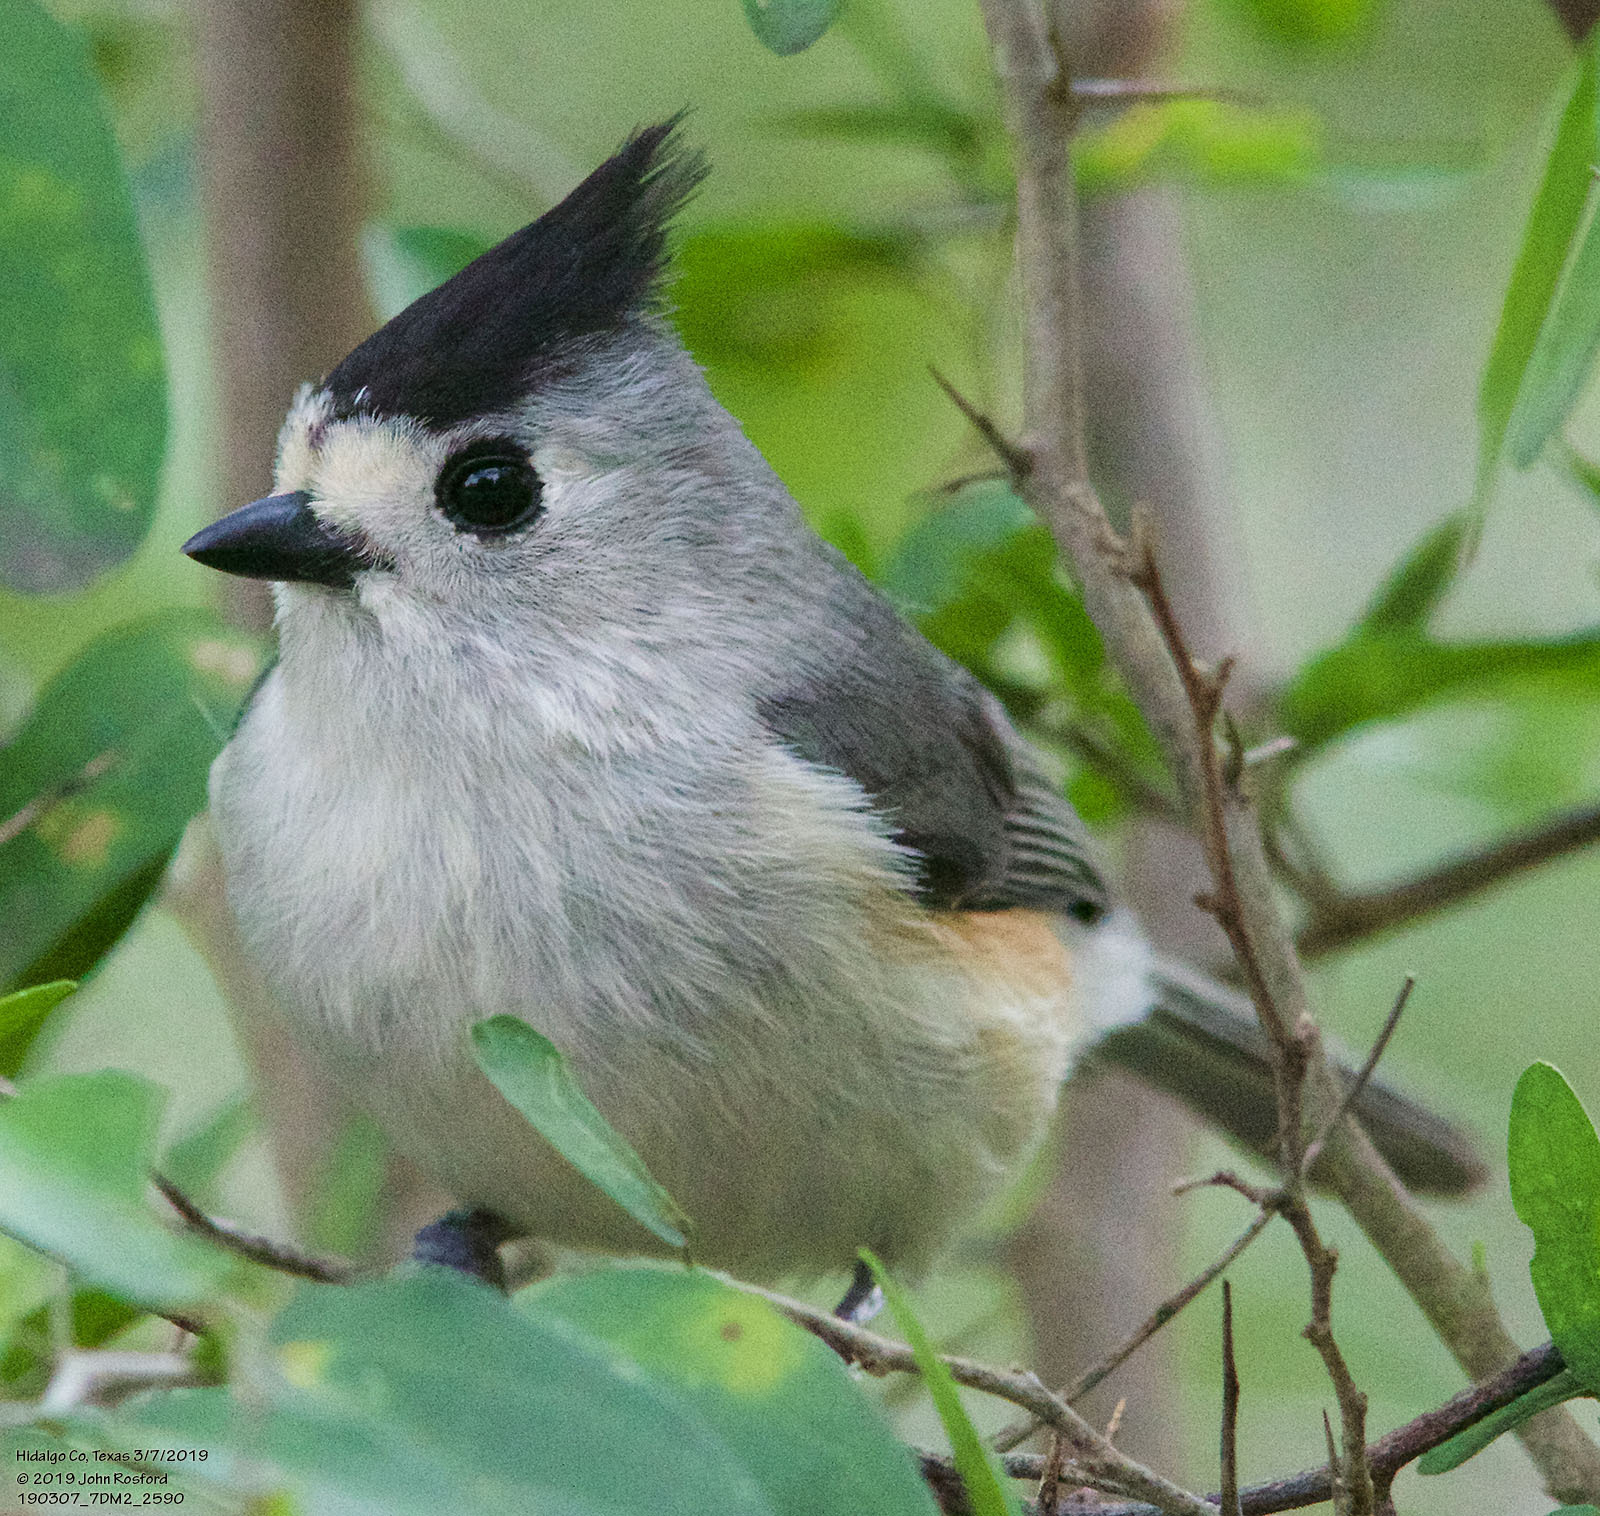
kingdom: Animalia
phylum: Chordata
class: Aves
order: Passeriformes
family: Paridae
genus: Baeolophus
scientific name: Baeolophus atricristatus
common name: Black-crested titmouse
